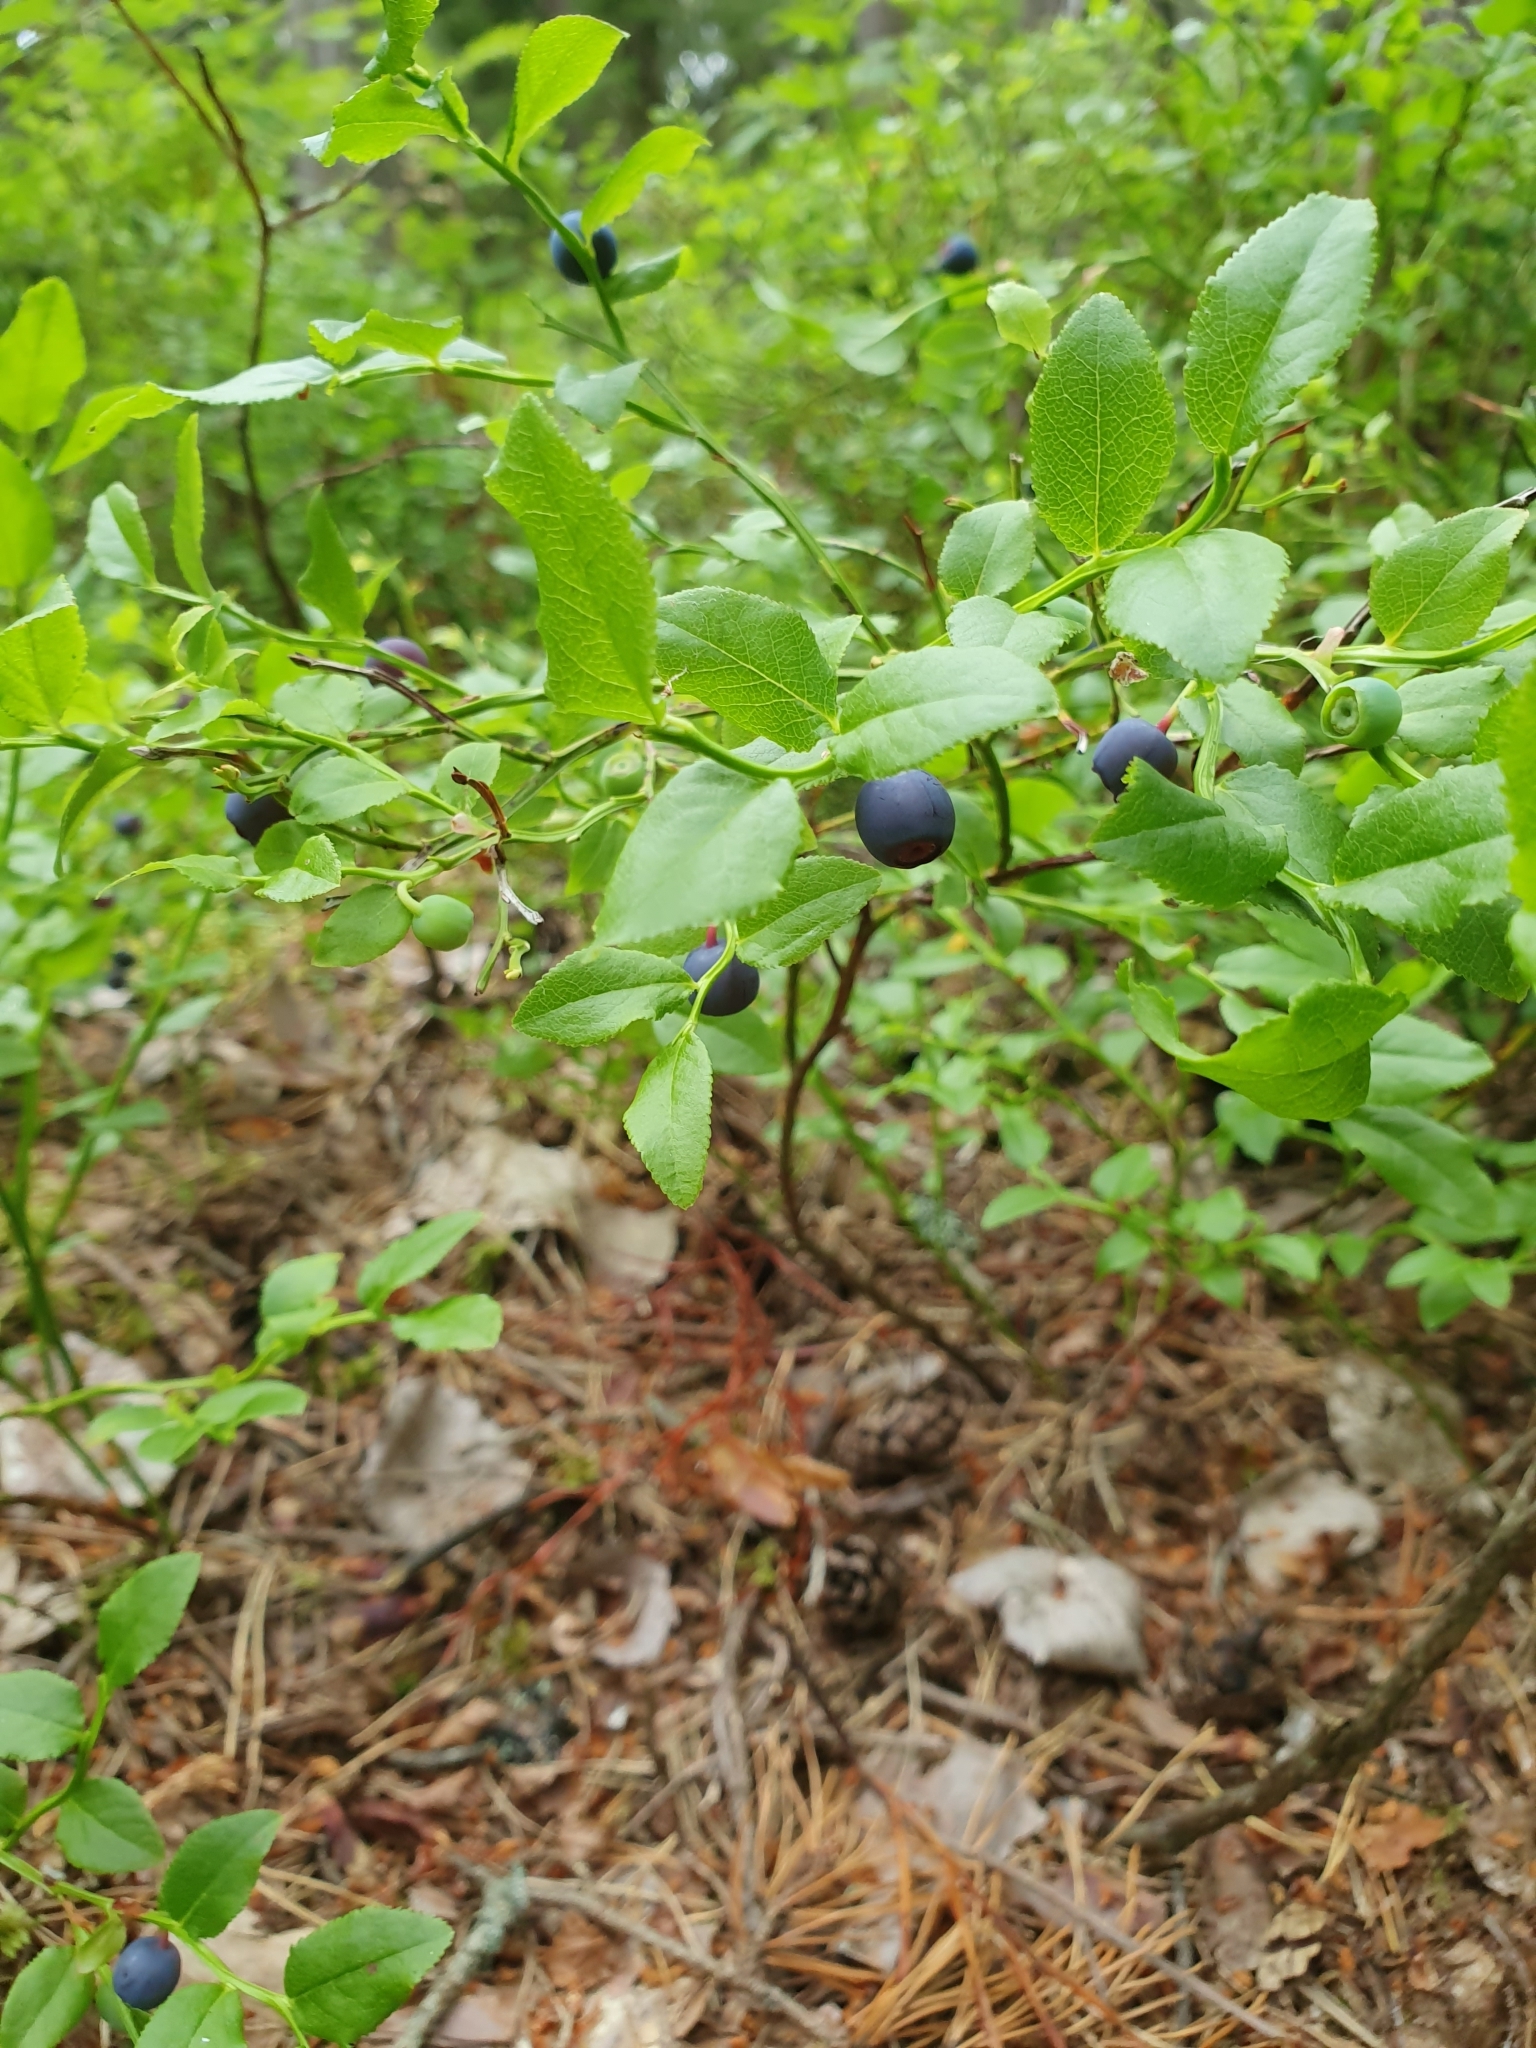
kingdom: Plantae
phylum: Tracheophyta
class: Magnoliopsida
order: Ericales
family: Ericaceae
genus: Vaccinium
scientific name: Vaccinium myrtillus
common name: Bilberry
